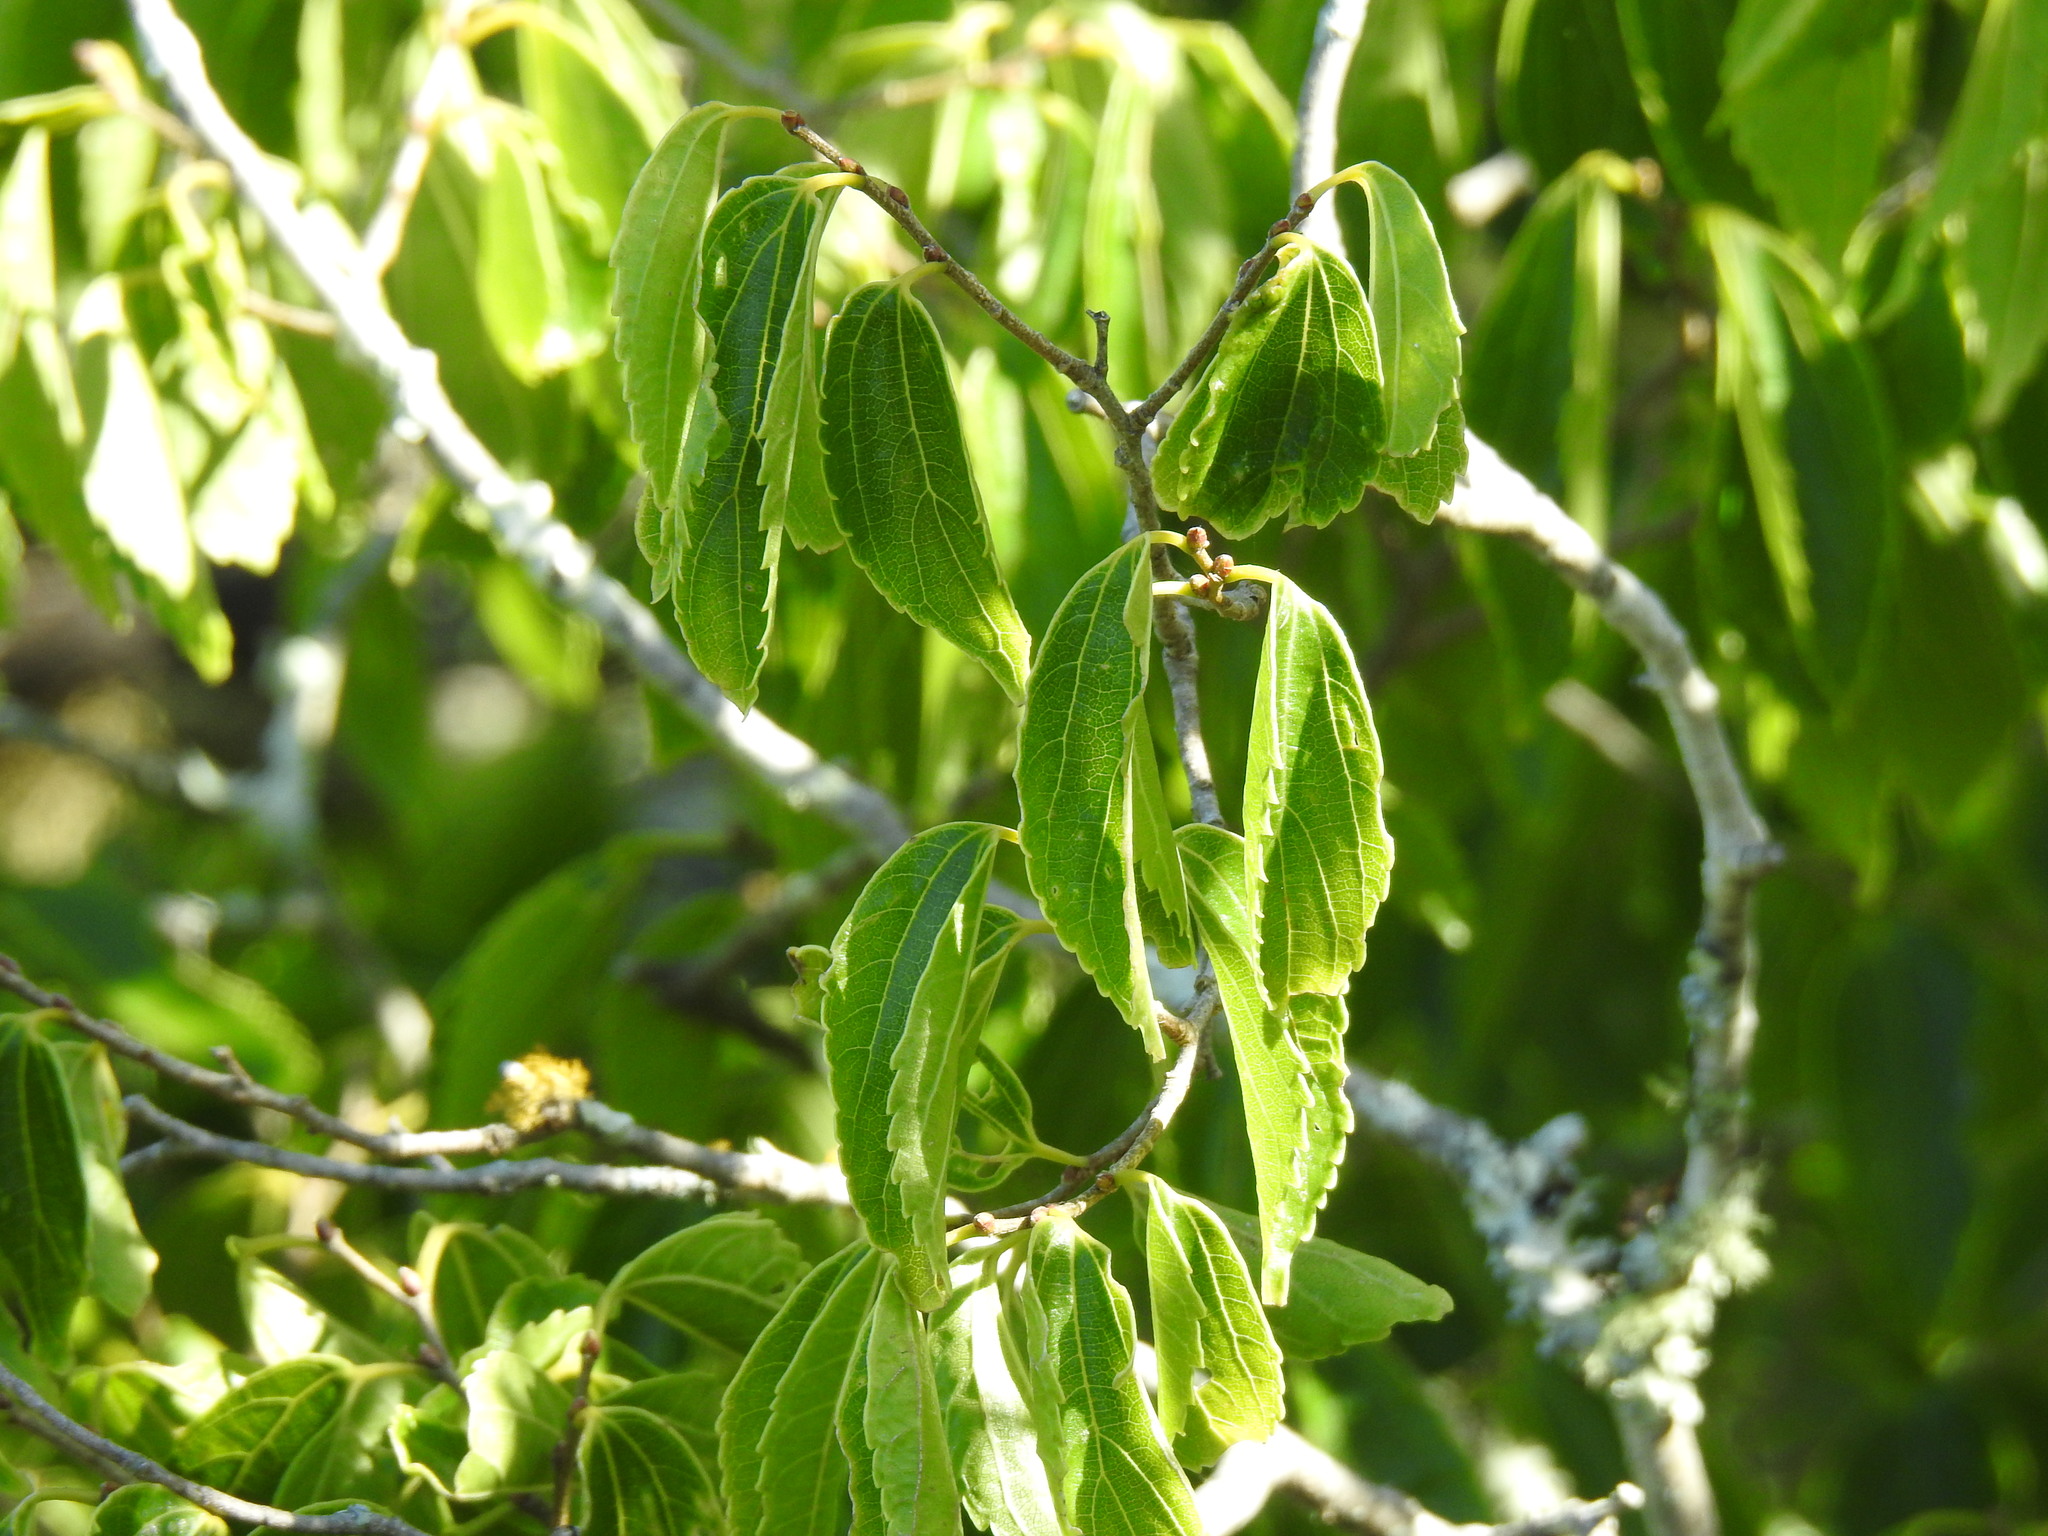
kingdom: Plantae
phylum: Tracheophyta
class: Magnoliopsida
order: Rosales
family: Cannabaceae
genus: Celtis
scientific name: Celtis africana
